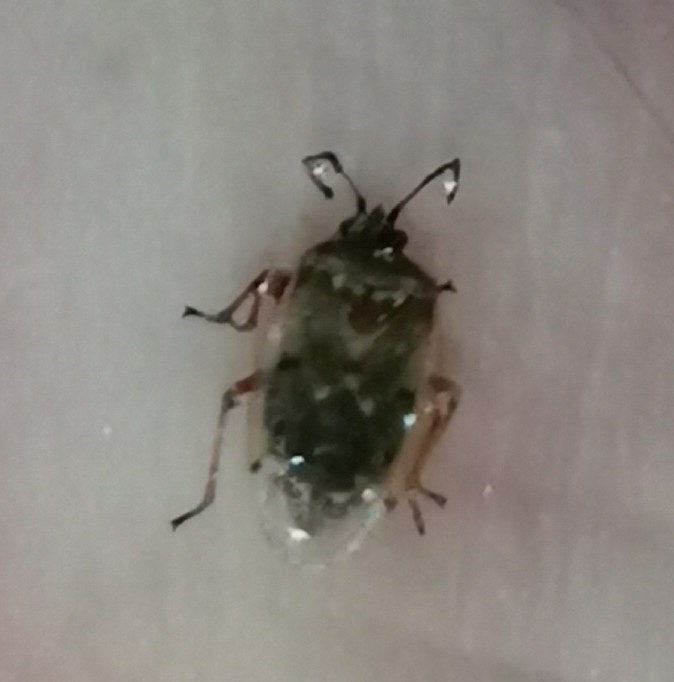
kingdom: Animalia
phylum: Arthropoda
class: Insecta
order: Hemiptera
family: Lygaeidae
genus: Kleidocerys
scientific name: Kleidocerys resedae
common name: Birch catkin bug
